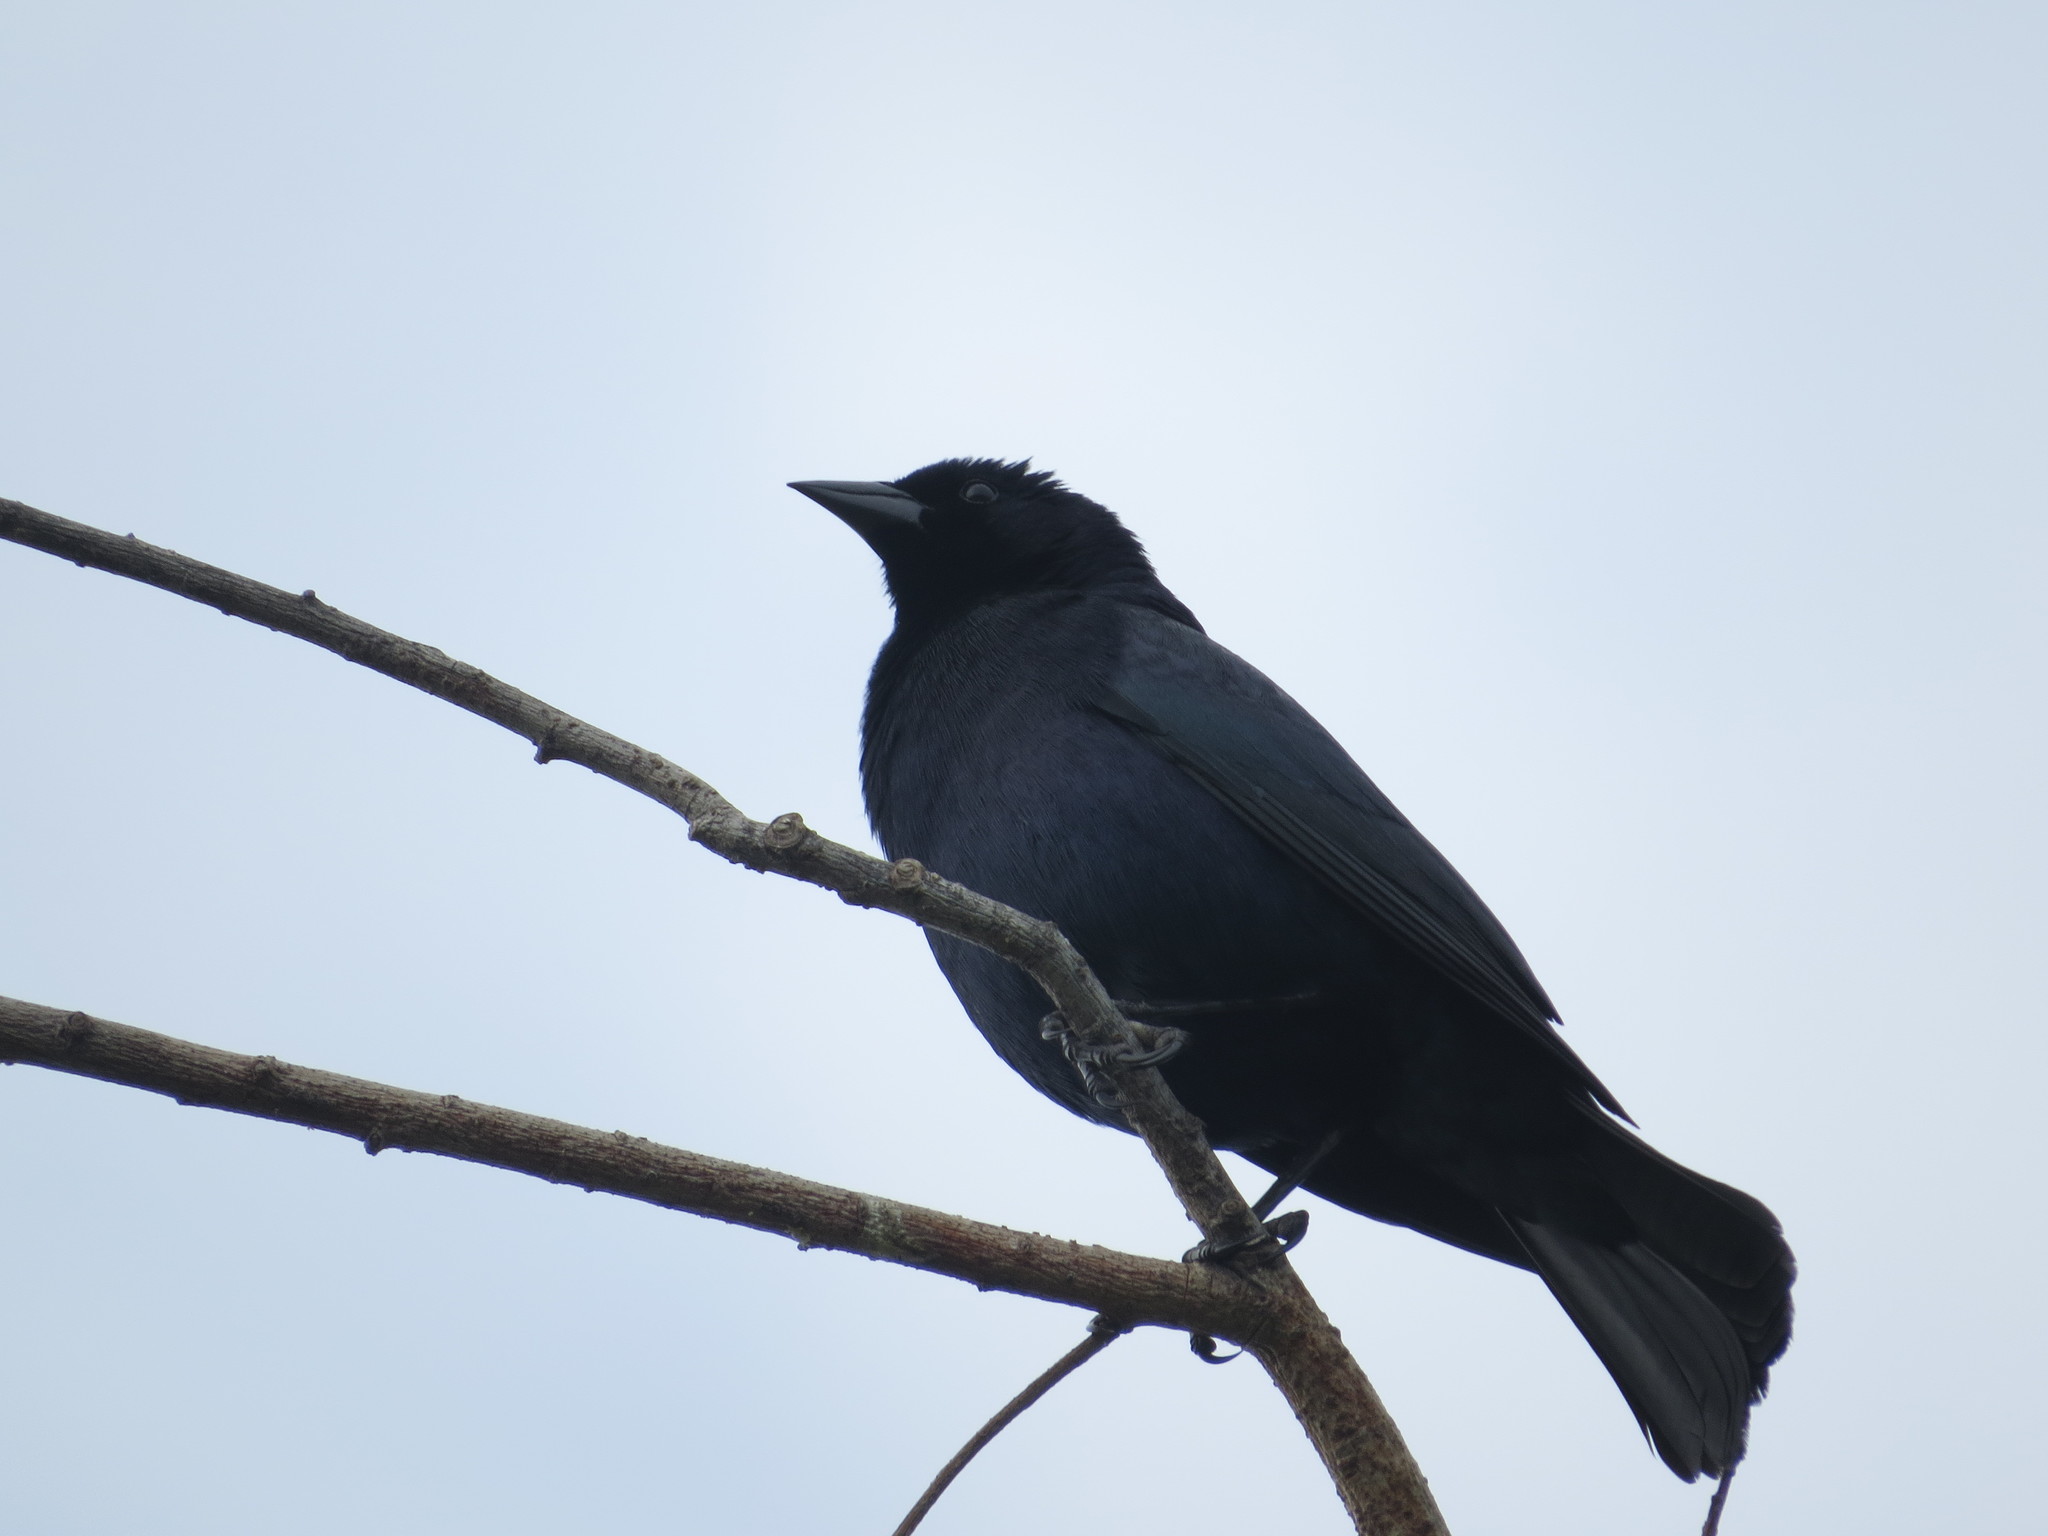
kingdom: Animalia
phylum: Chordata
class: Aves
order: Passeriformes
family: Icteridae
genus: Molothrus
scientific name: Molothrus bonariensis
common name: Shiny cowbird
